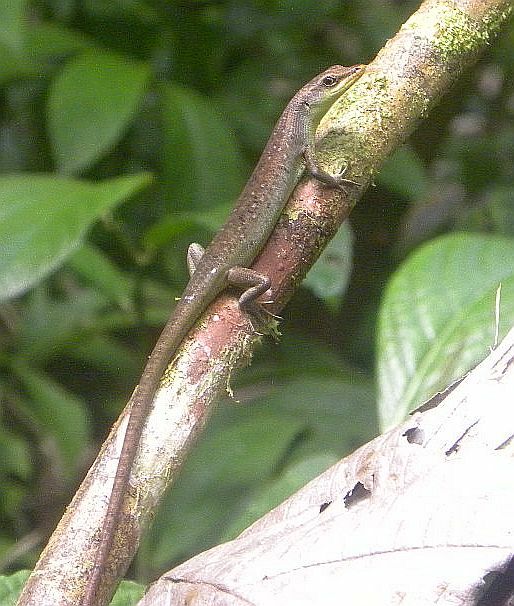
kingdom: Animalia
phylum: Chordata
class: Squamata
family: Scincidae
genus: Emoia
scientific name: Emoia longicauda
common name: Shrub whiptail-skink
